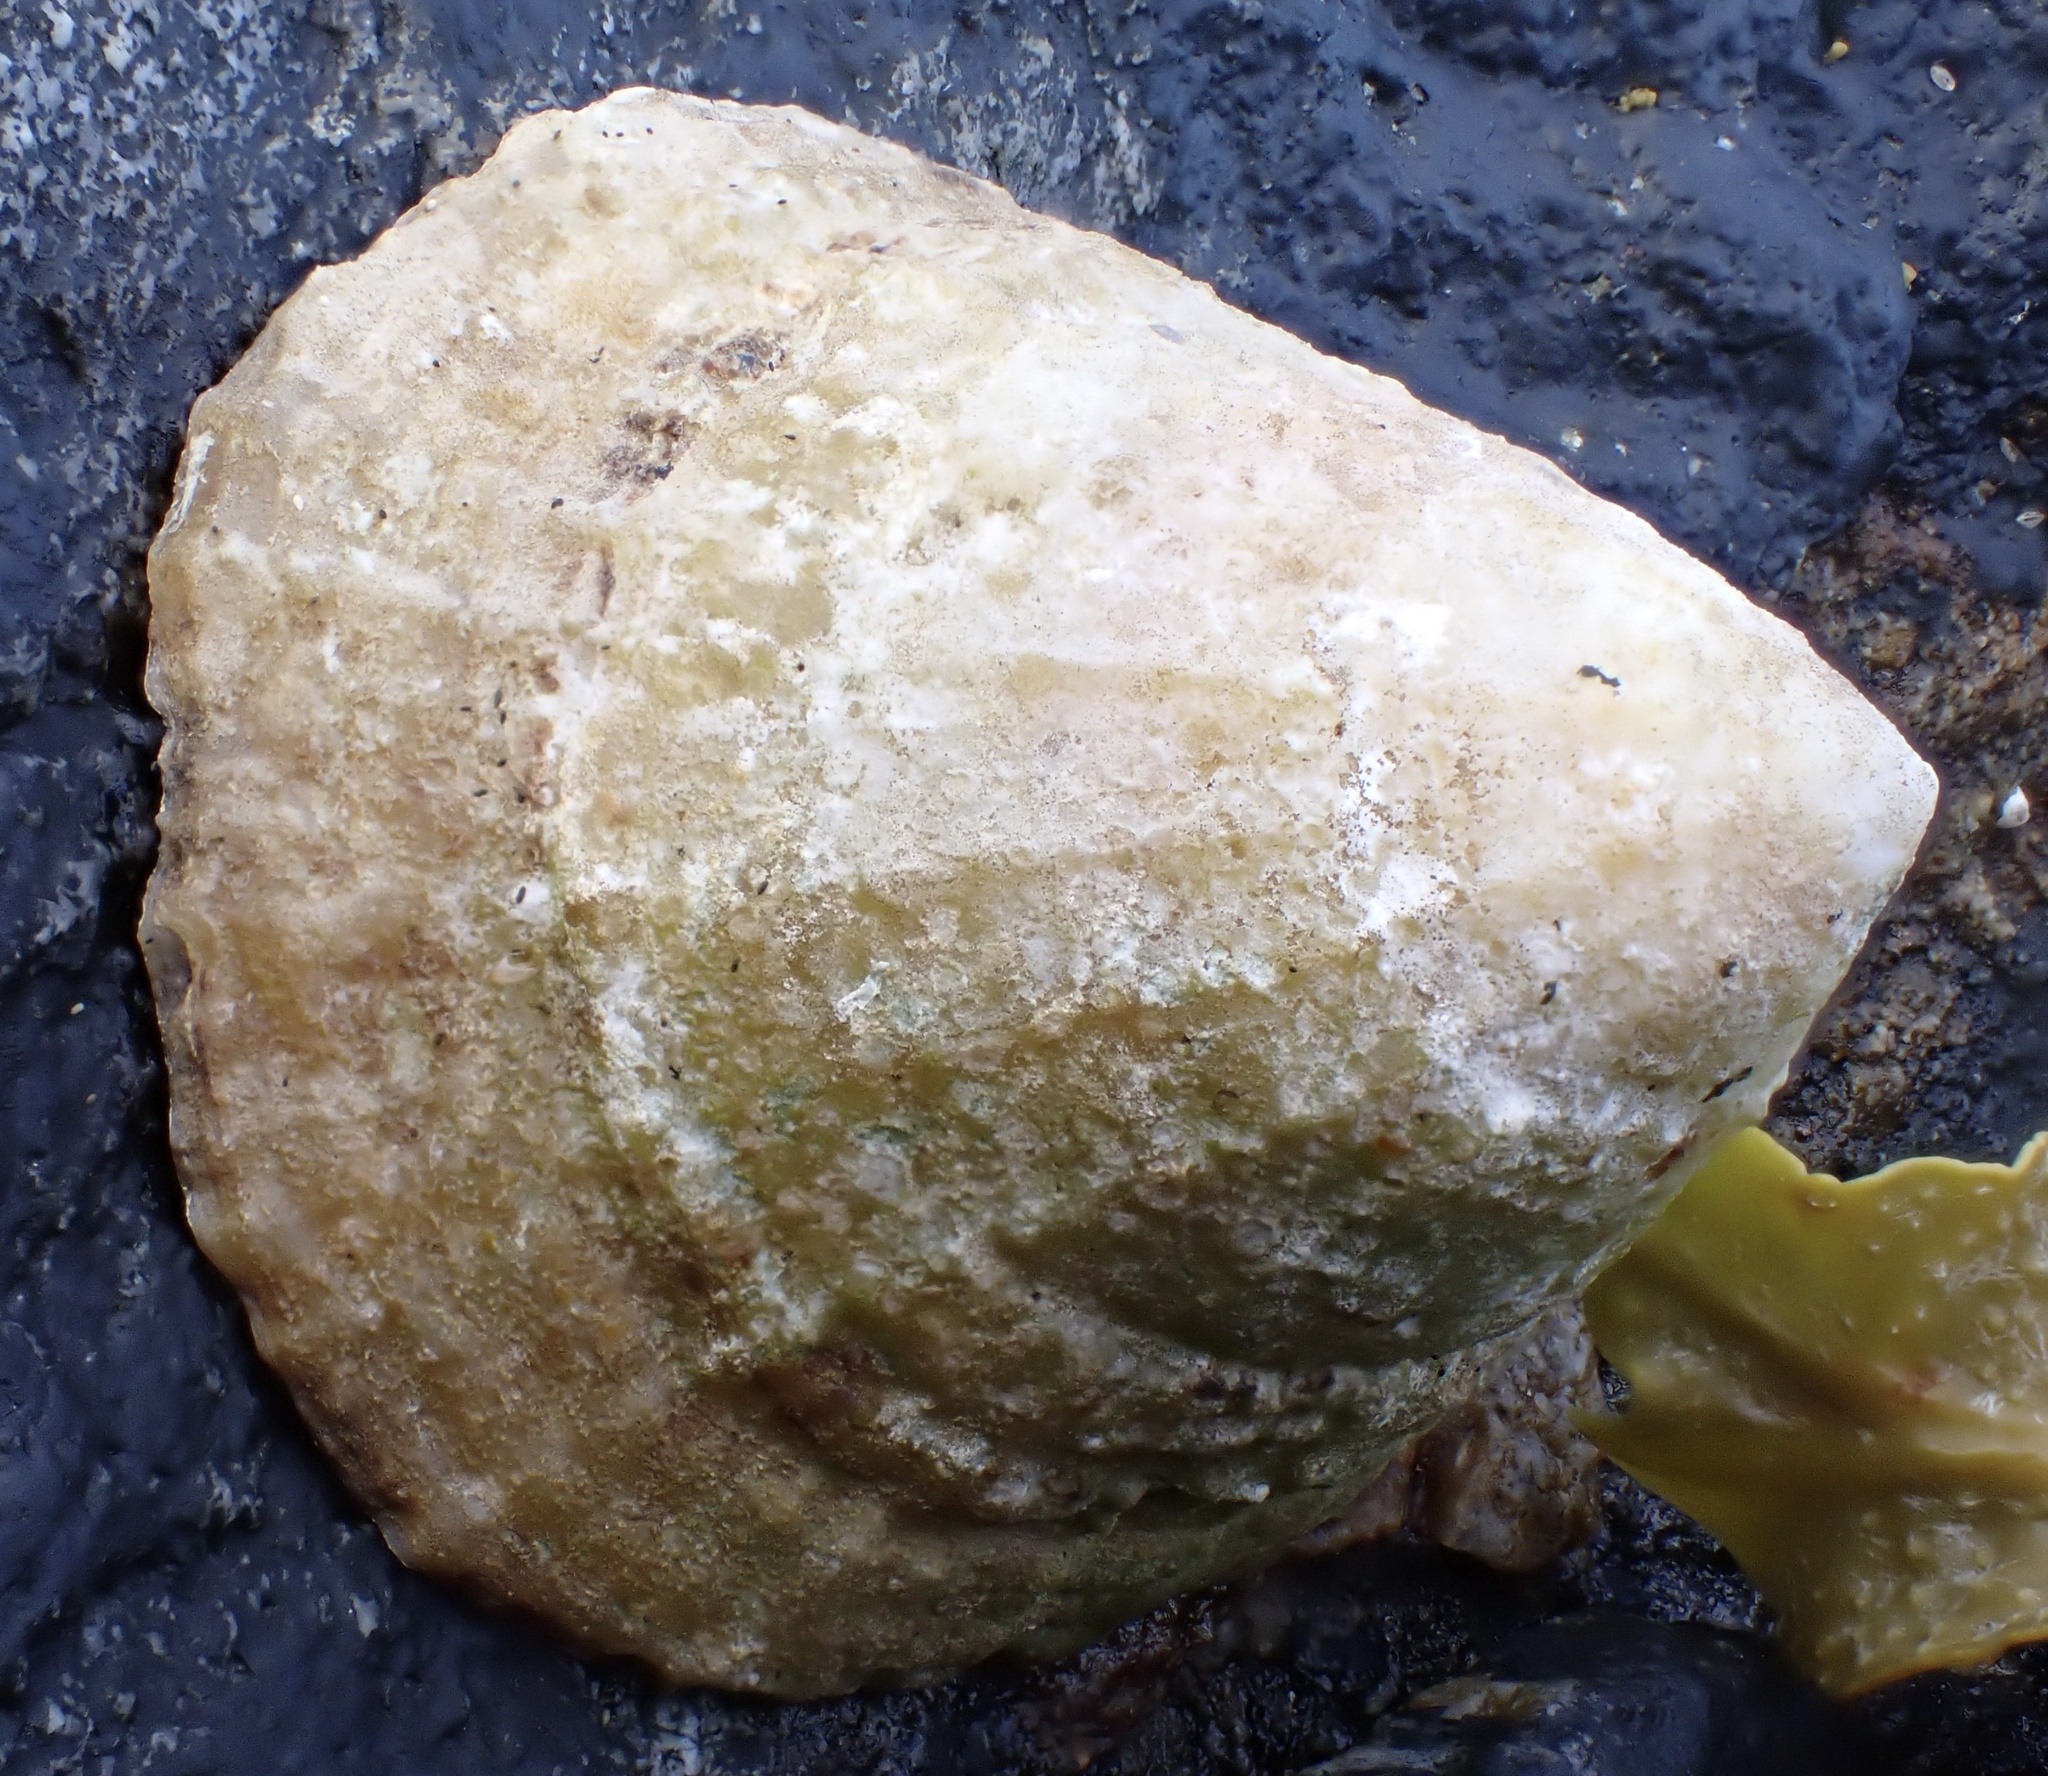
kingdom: Animalia
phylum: Mollusca
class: Gastropoda
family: Patellidae
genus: Patella
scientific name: Patella vulgata
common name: Common limpet
